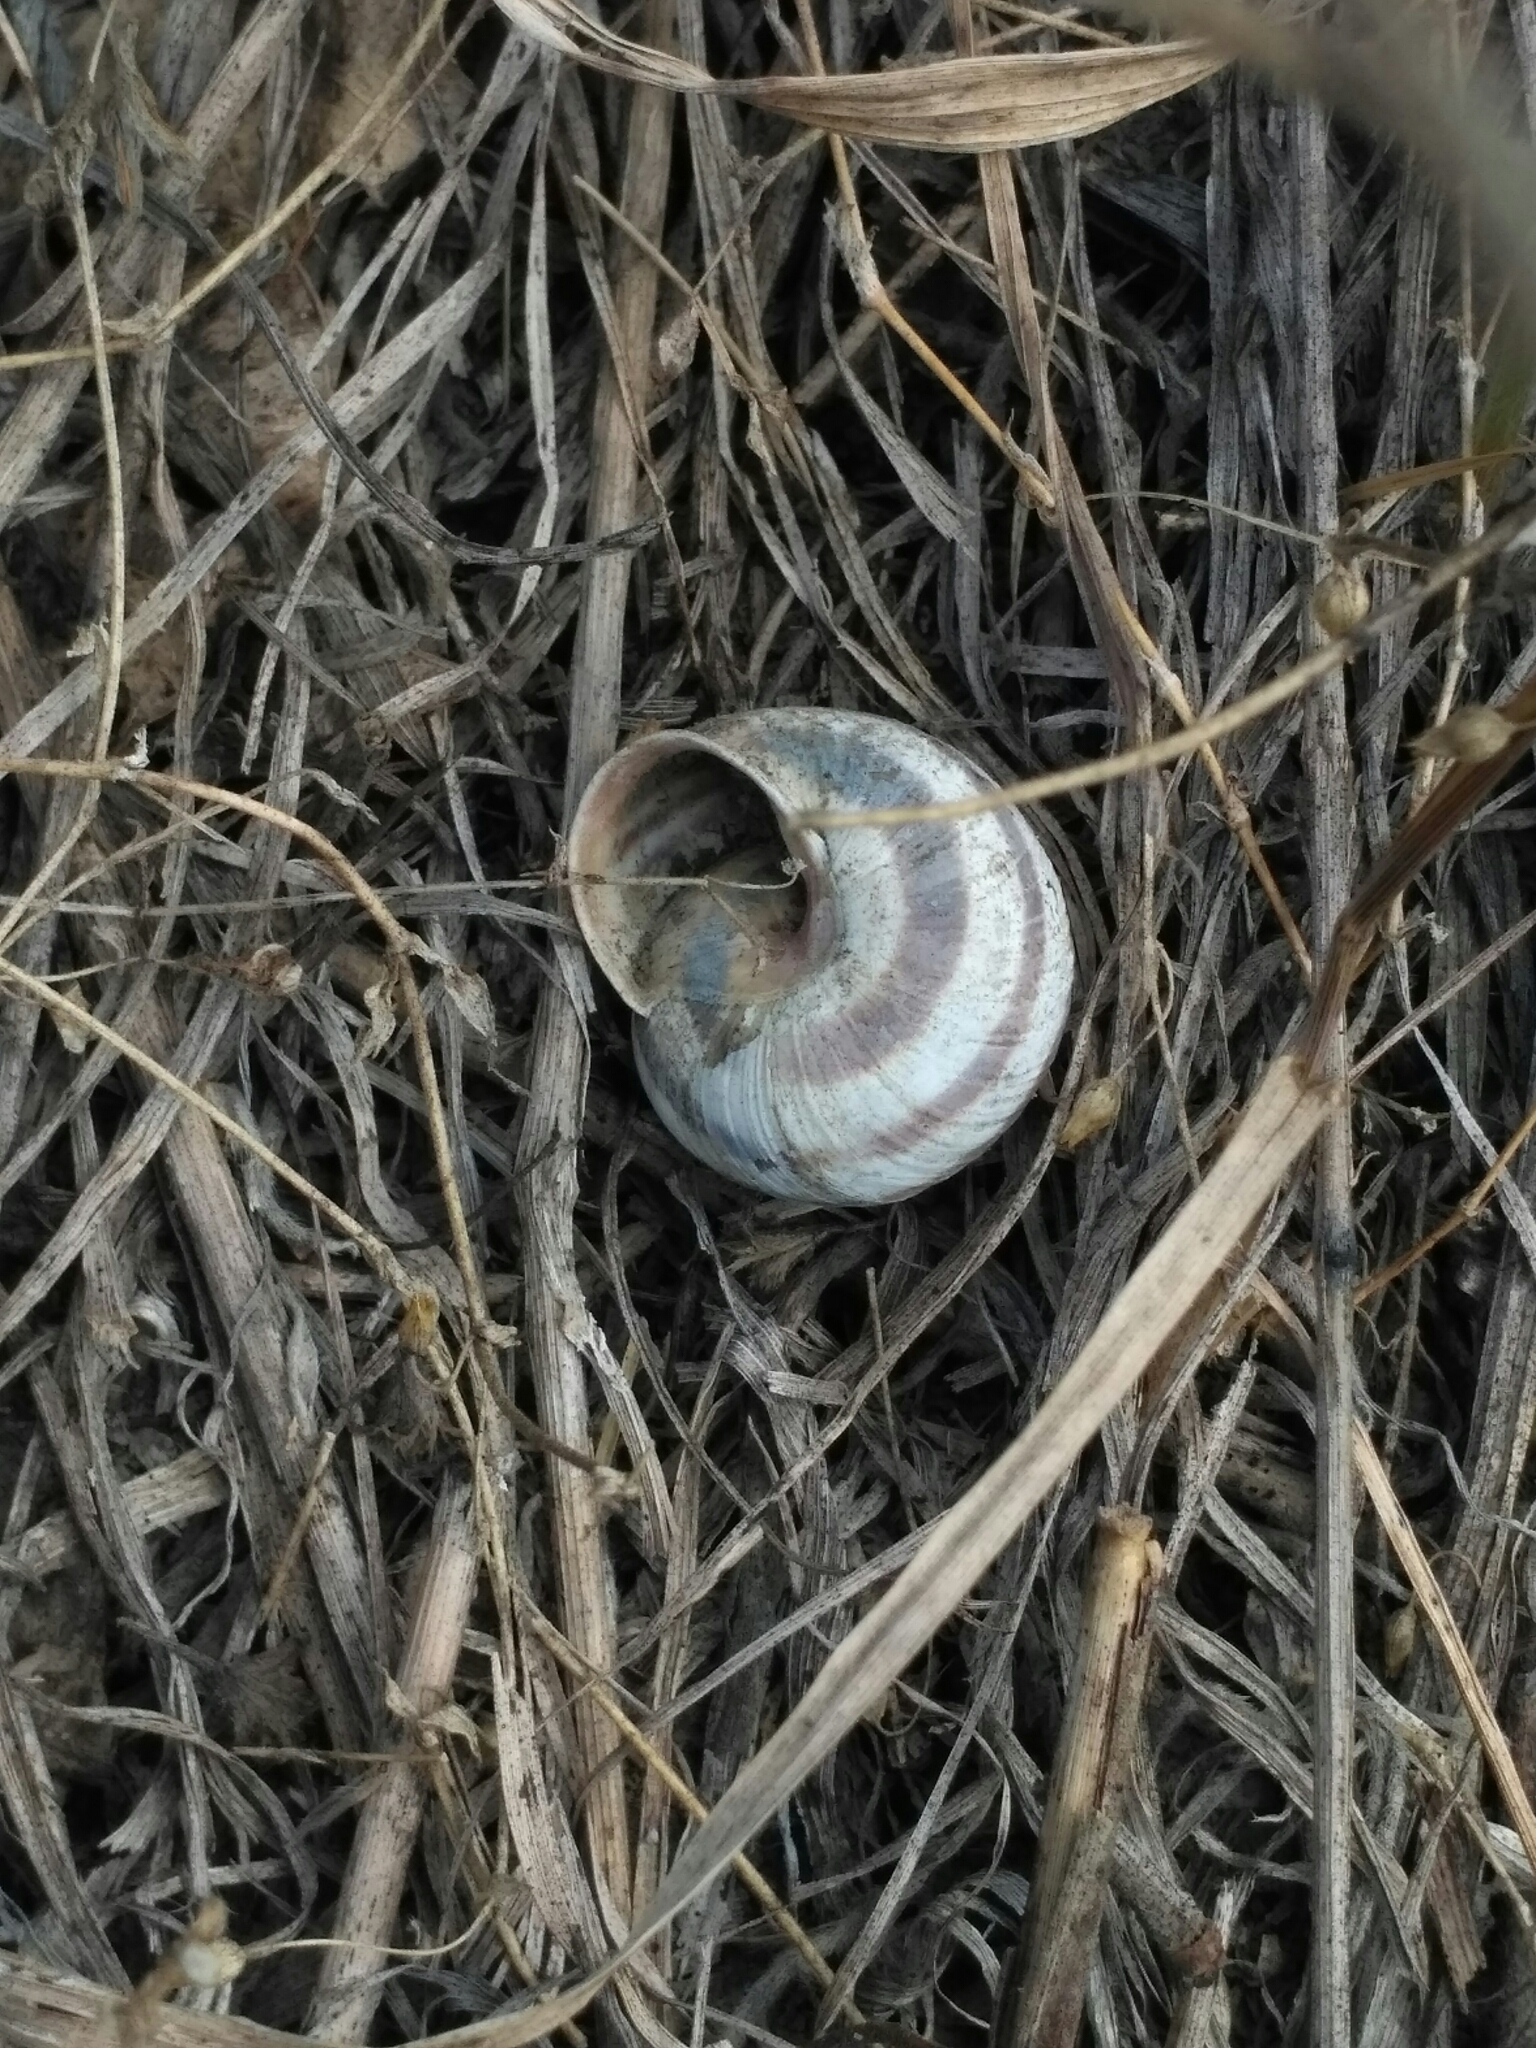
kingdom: Animalia
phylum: Mollusca
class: Gastropoda
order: Stylommatophora
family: Helicidae
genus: Caucasotachea
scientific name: Caucasotachea vindobonensis
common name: European helicid land snail
